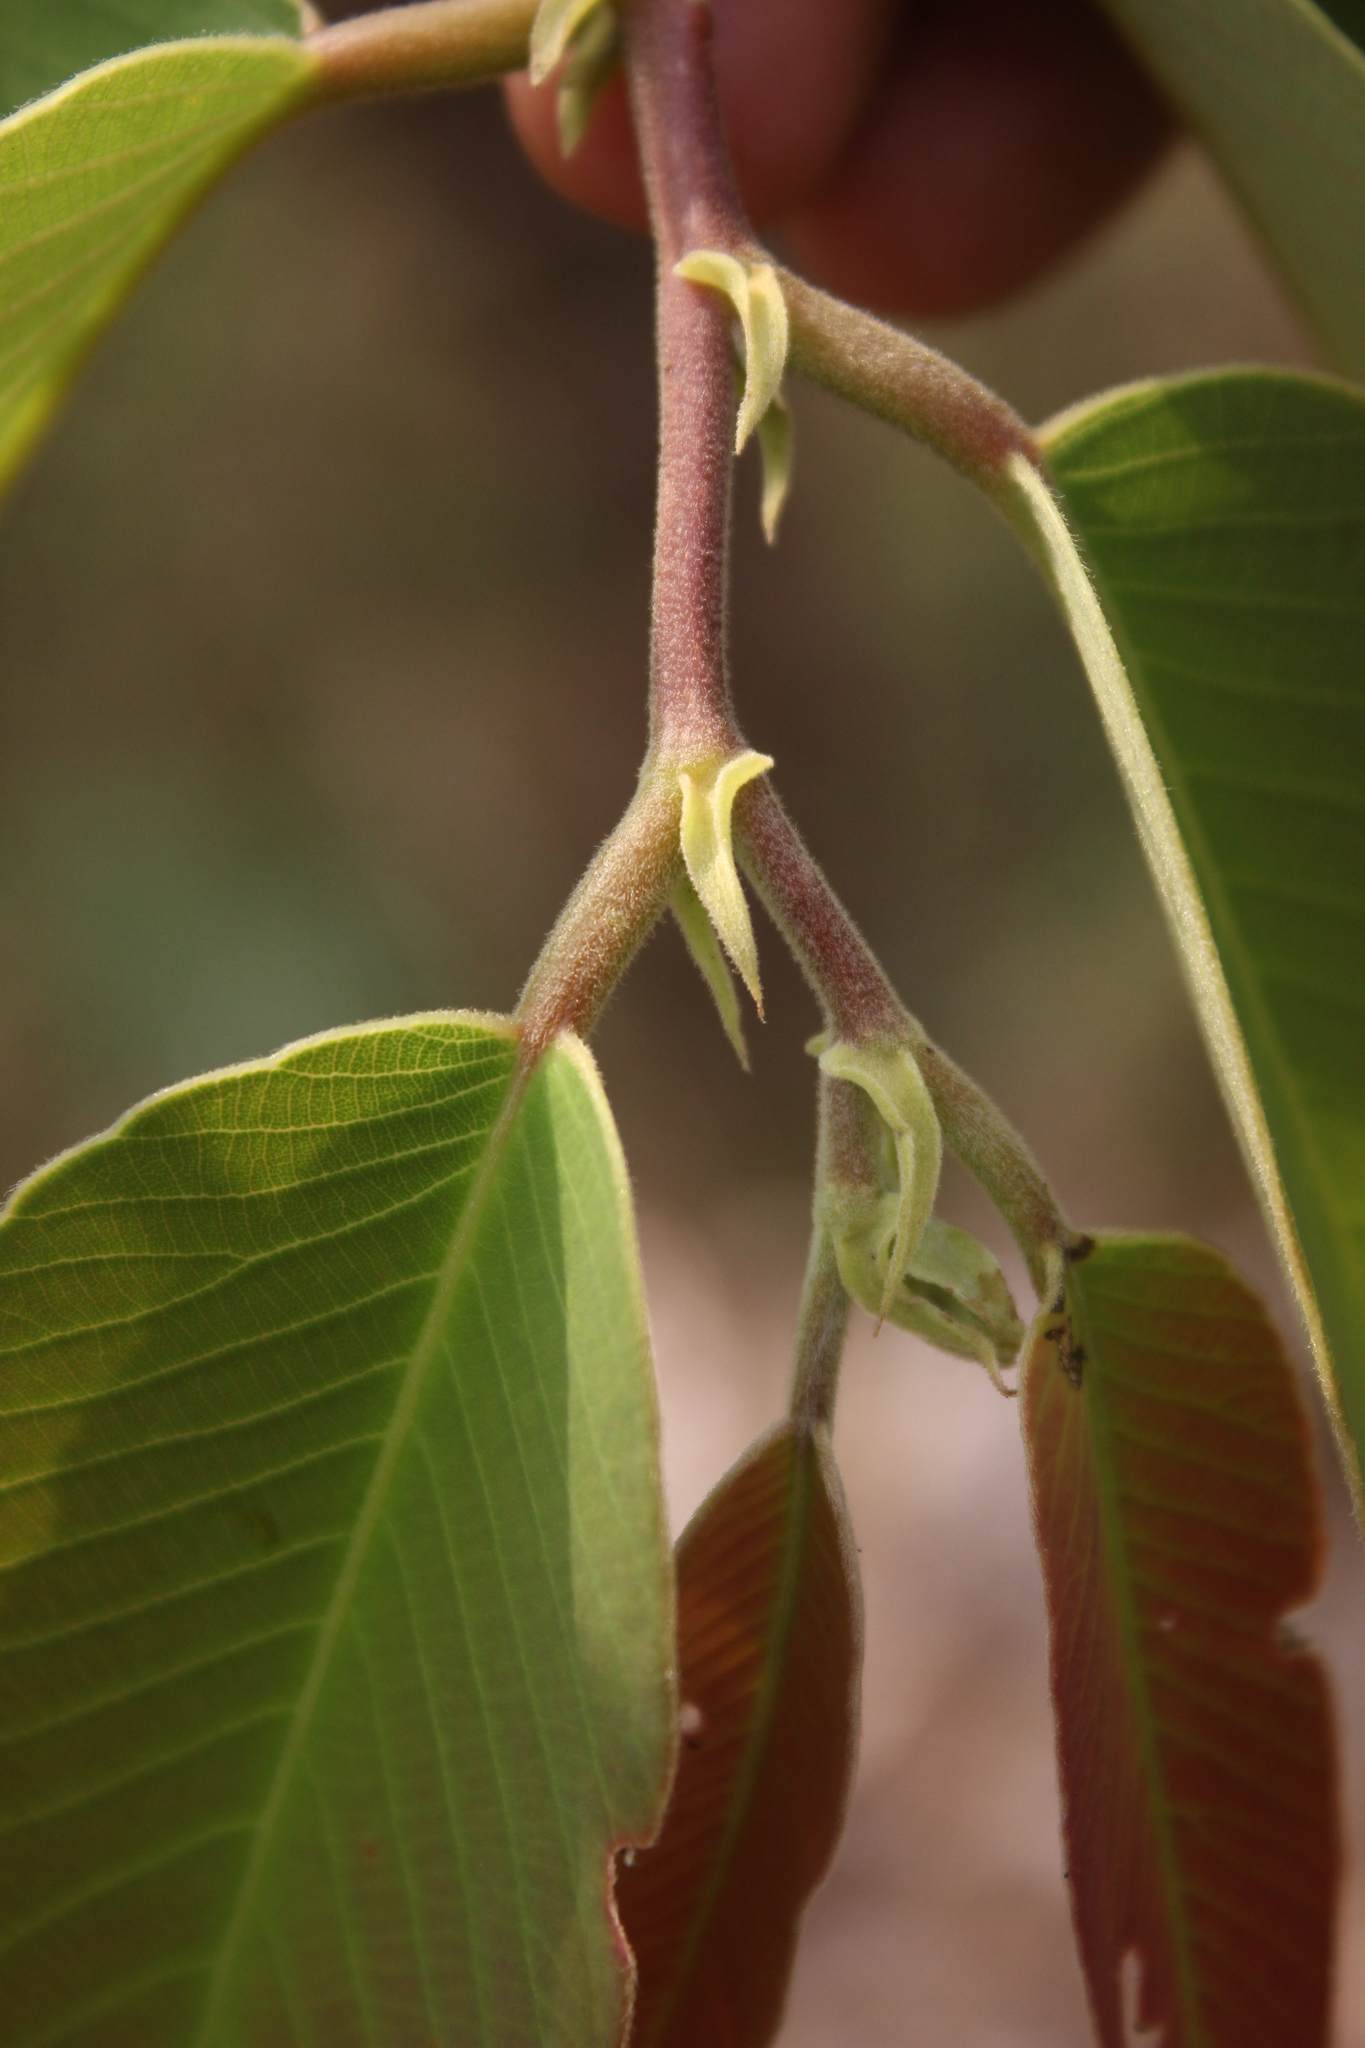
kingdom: Plantae
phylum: Tracheophyta
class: Magnoliopsida
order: Malpighiales
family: Phyllanthaceae
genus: Bridelia
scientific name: Bridelia retusa
